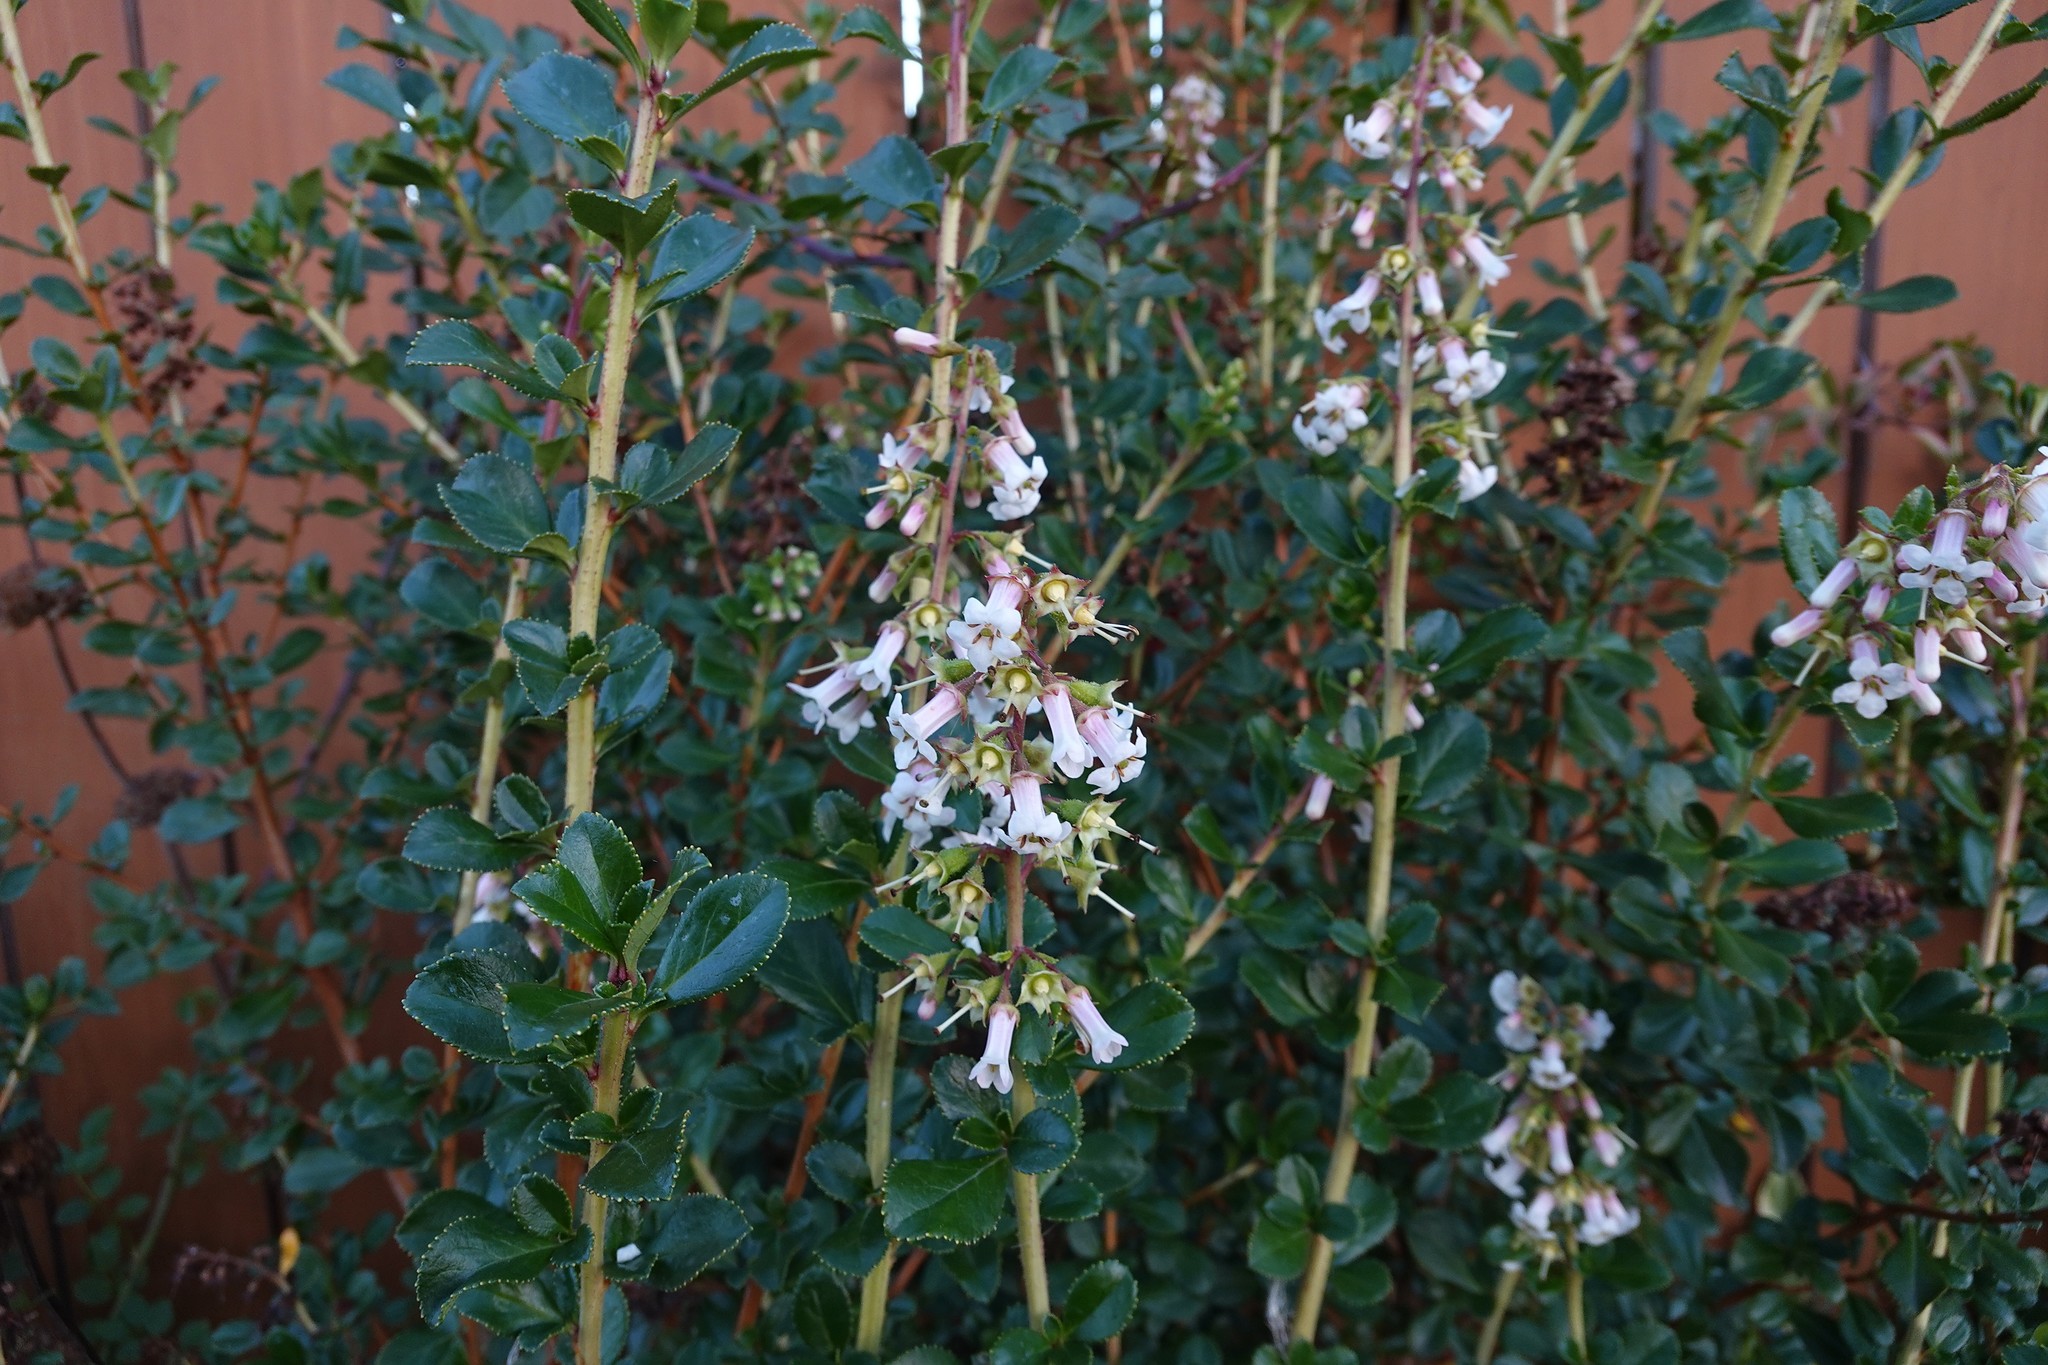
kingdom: Plantae
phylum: Tracheophyta
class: Magnoliopsida
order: Escalloniales
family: Escalloniaceae
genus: Escallonia
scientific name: Escallonia rubra
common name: Redclaws
